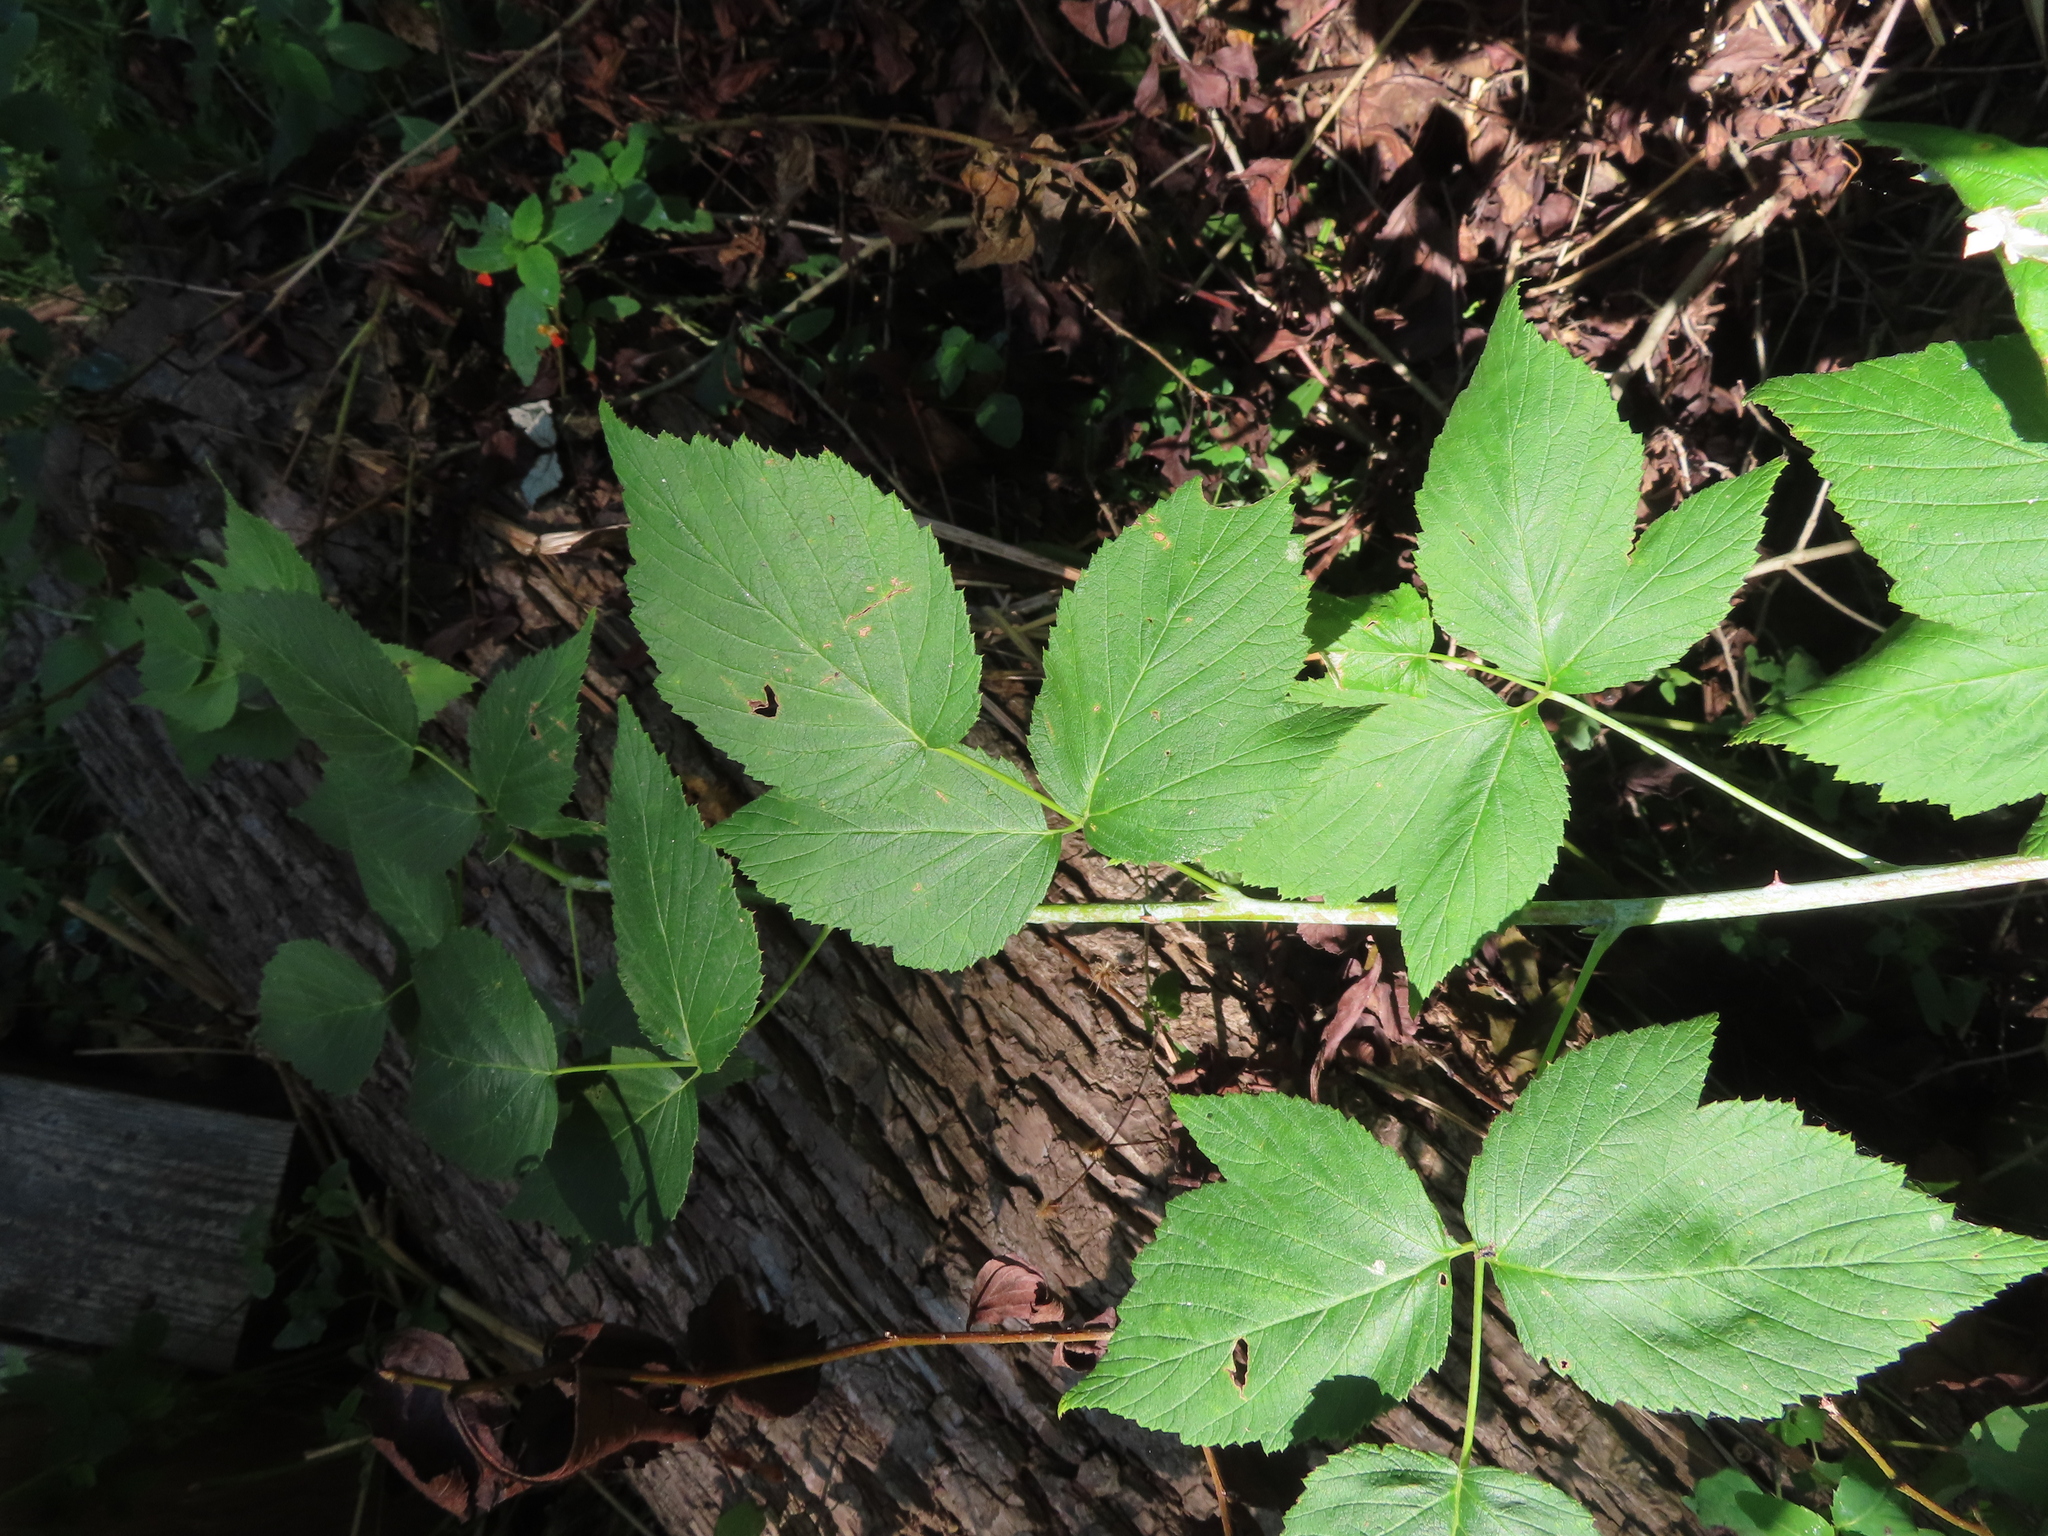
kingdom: Plantae
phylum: Tracheophyta
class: Magnoliopsida
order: Rosales
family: Rosaceae
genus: Rubus
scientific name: Rubus occidentalis
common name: Black raspberry
